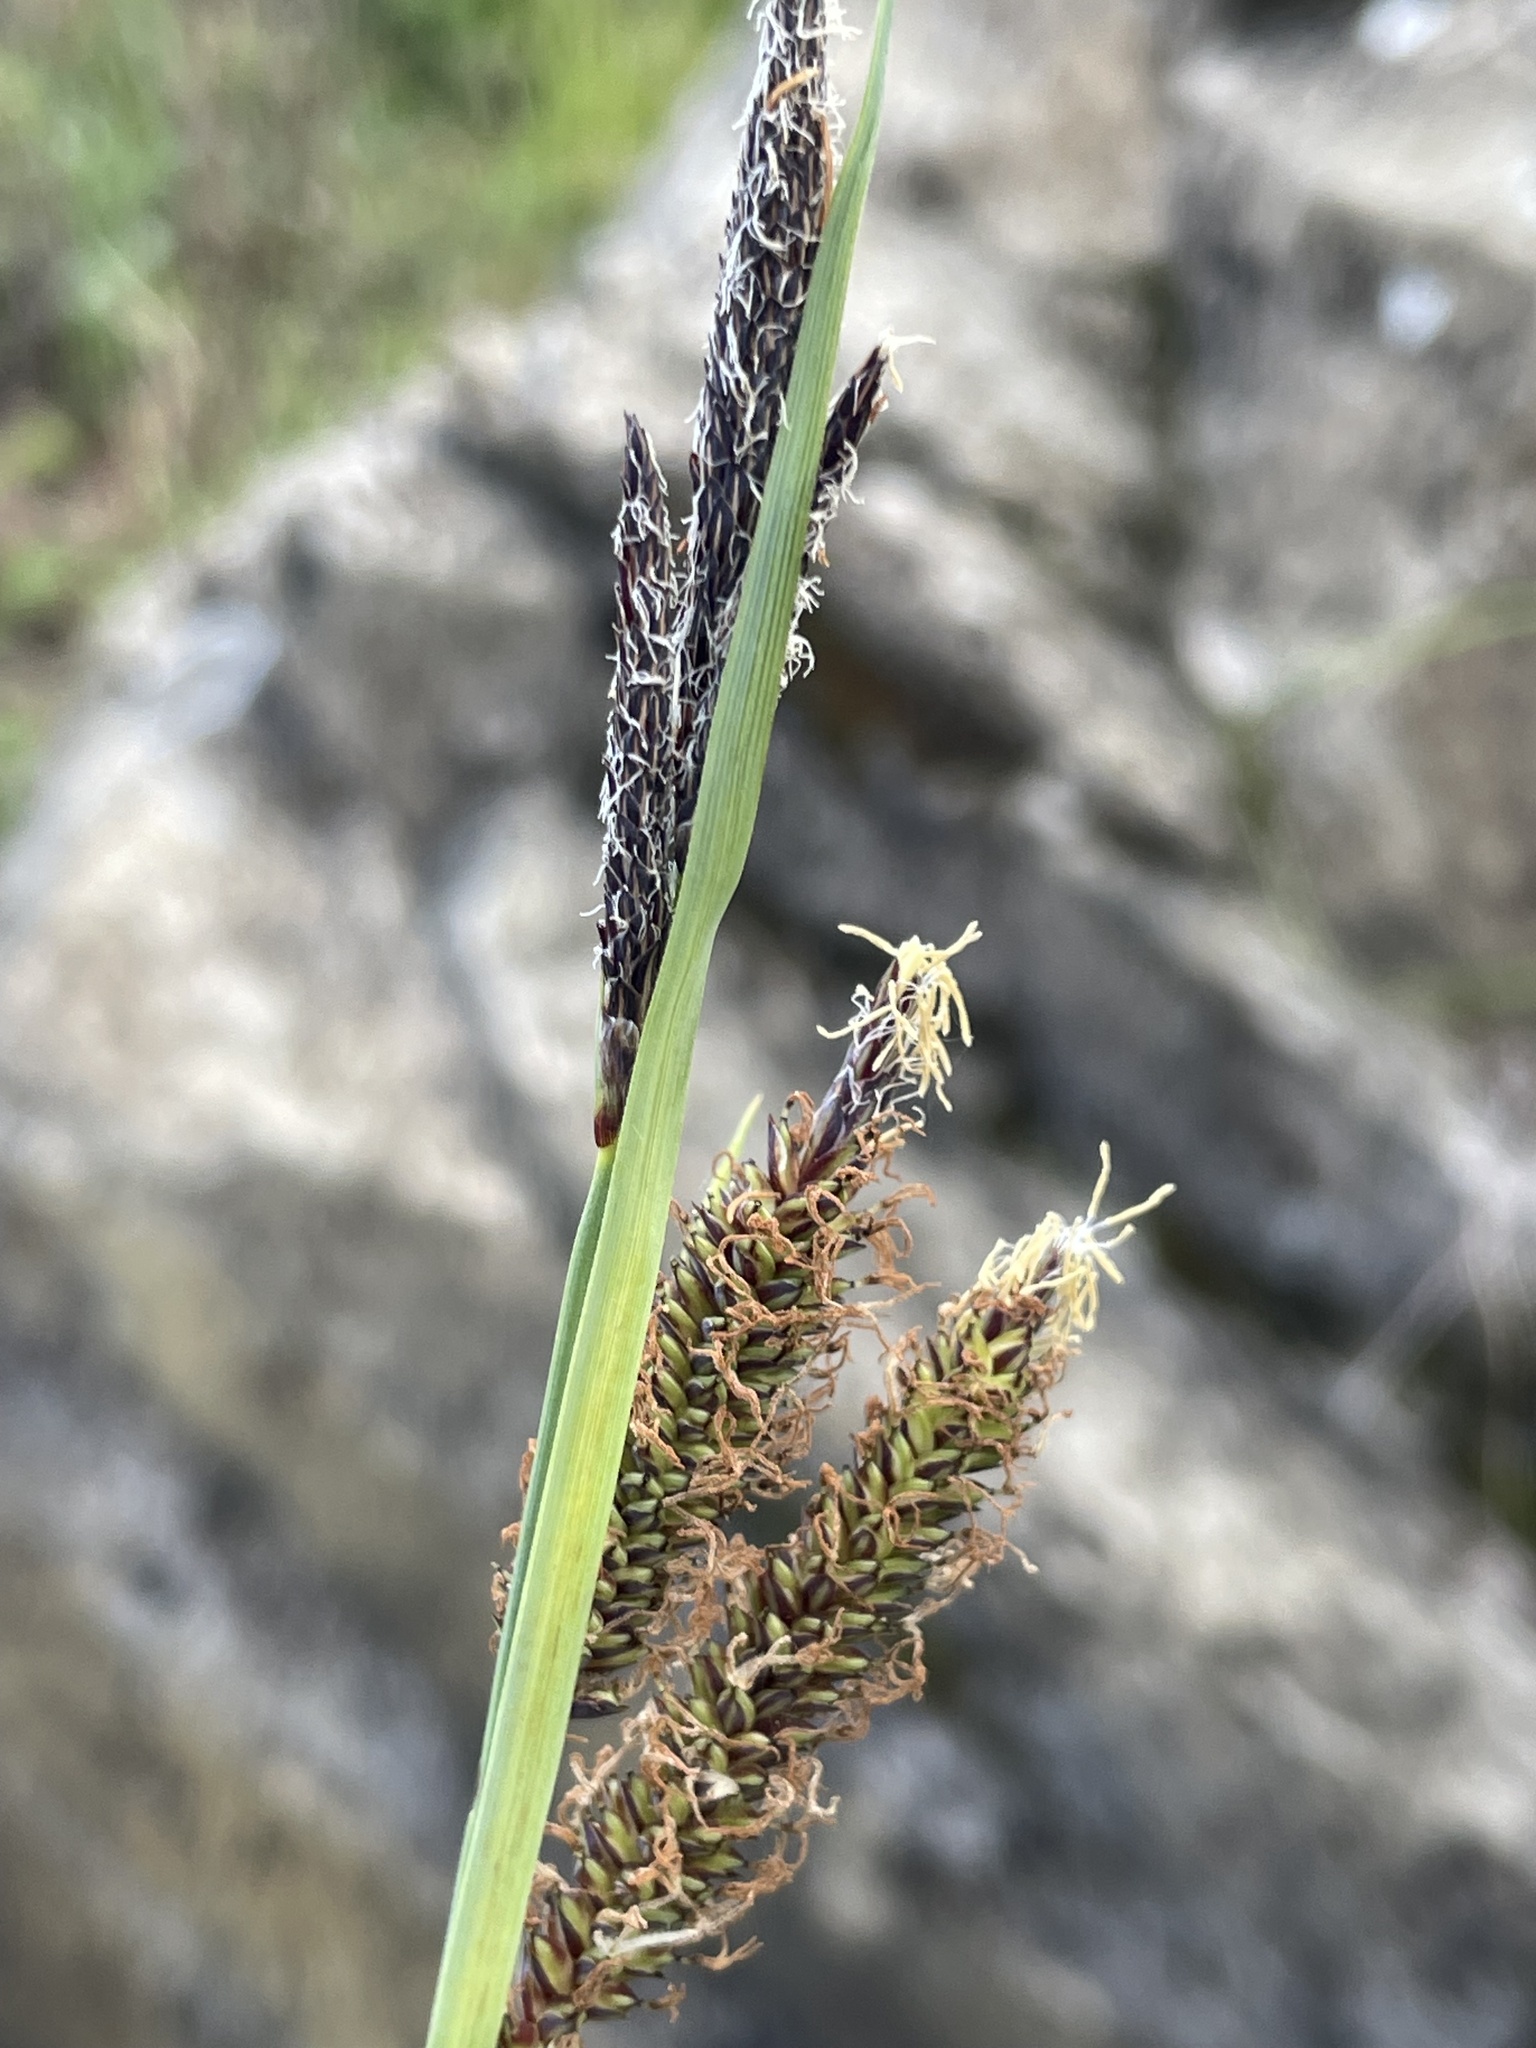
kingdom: Plantae
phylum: Tracheophyta
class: Liliopsida
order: Poales
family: Cyperaceae
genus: Carex
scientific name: Carex flacca
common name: Glaucous sedge
